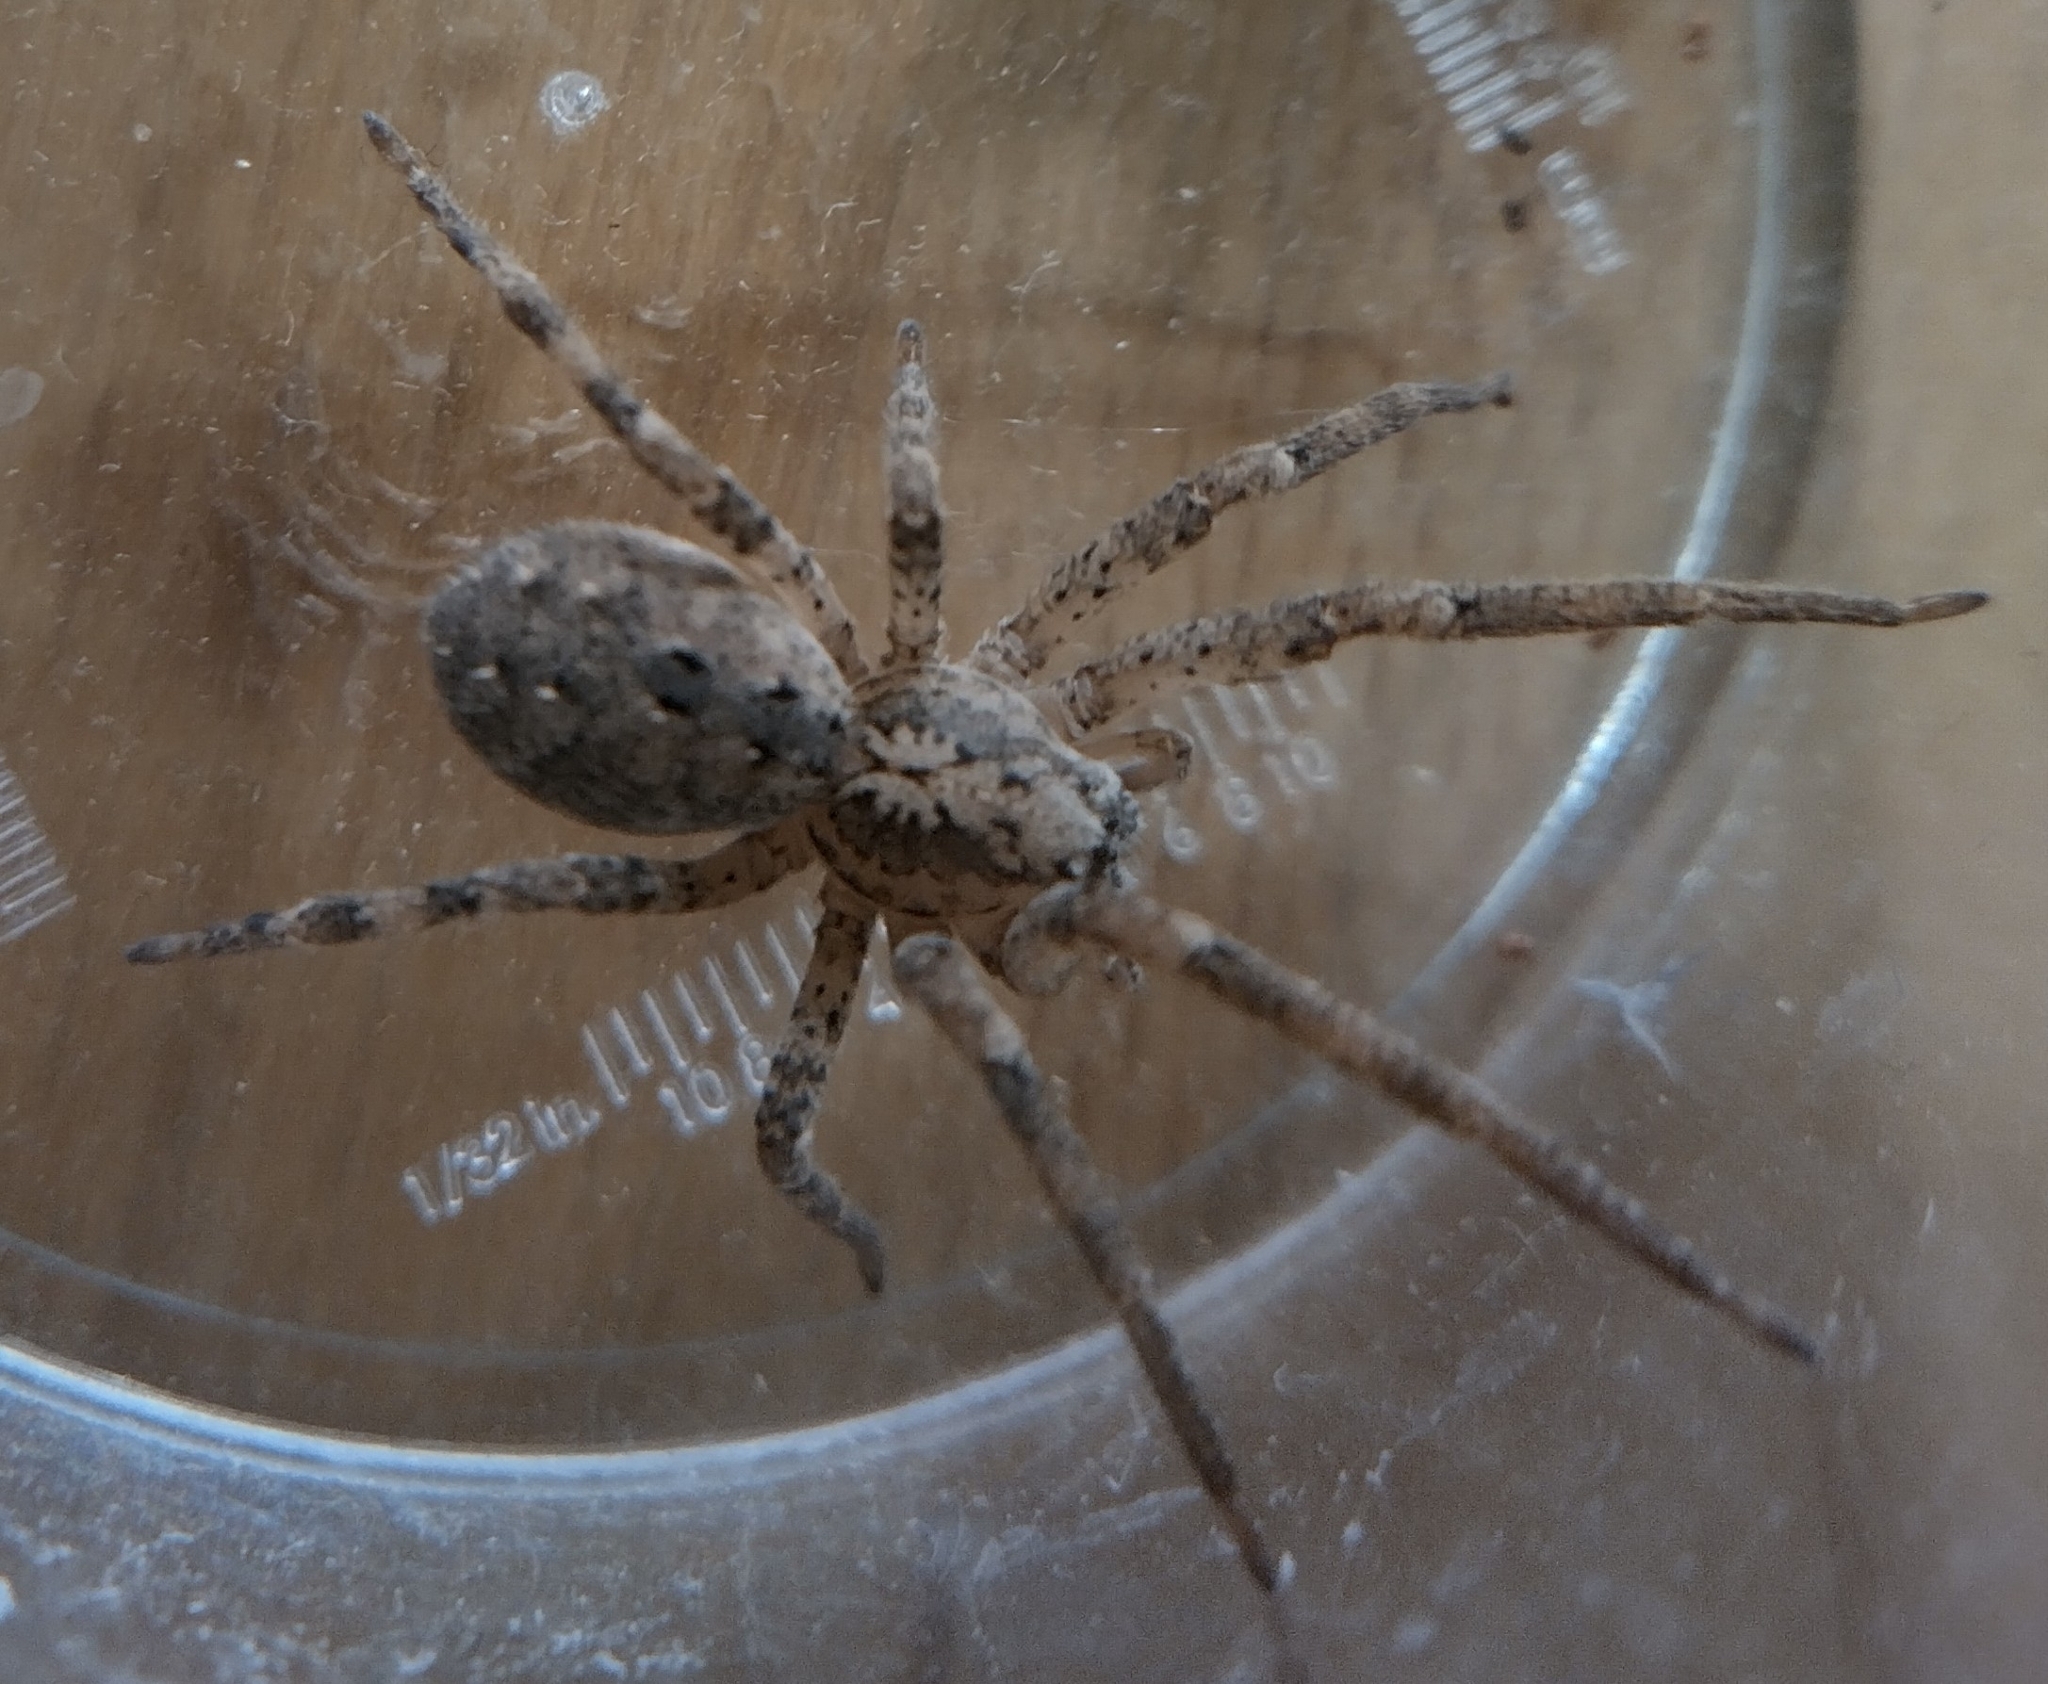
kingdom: Animalia
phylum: Arthropoda
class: Arachnida
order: Araneae
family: Zoropsidae
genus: Zoropsis
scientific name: Zoropsis spinimana
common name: Zoropsid spider
